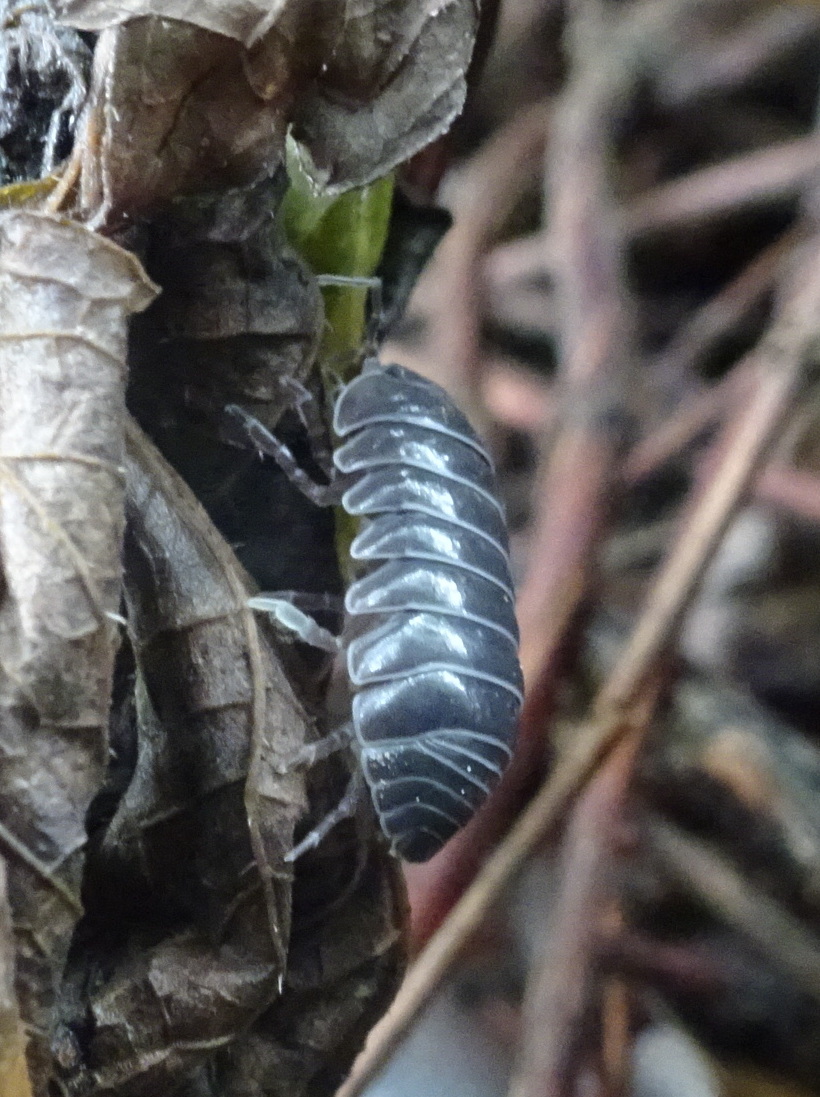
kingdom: Animalia
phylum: Arthropoda
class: Malacostraca
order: Isopoda
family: Armadillidiidae
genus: Armadillidium
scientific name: Armadillidium vulgare
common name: Common pill woodlouse
